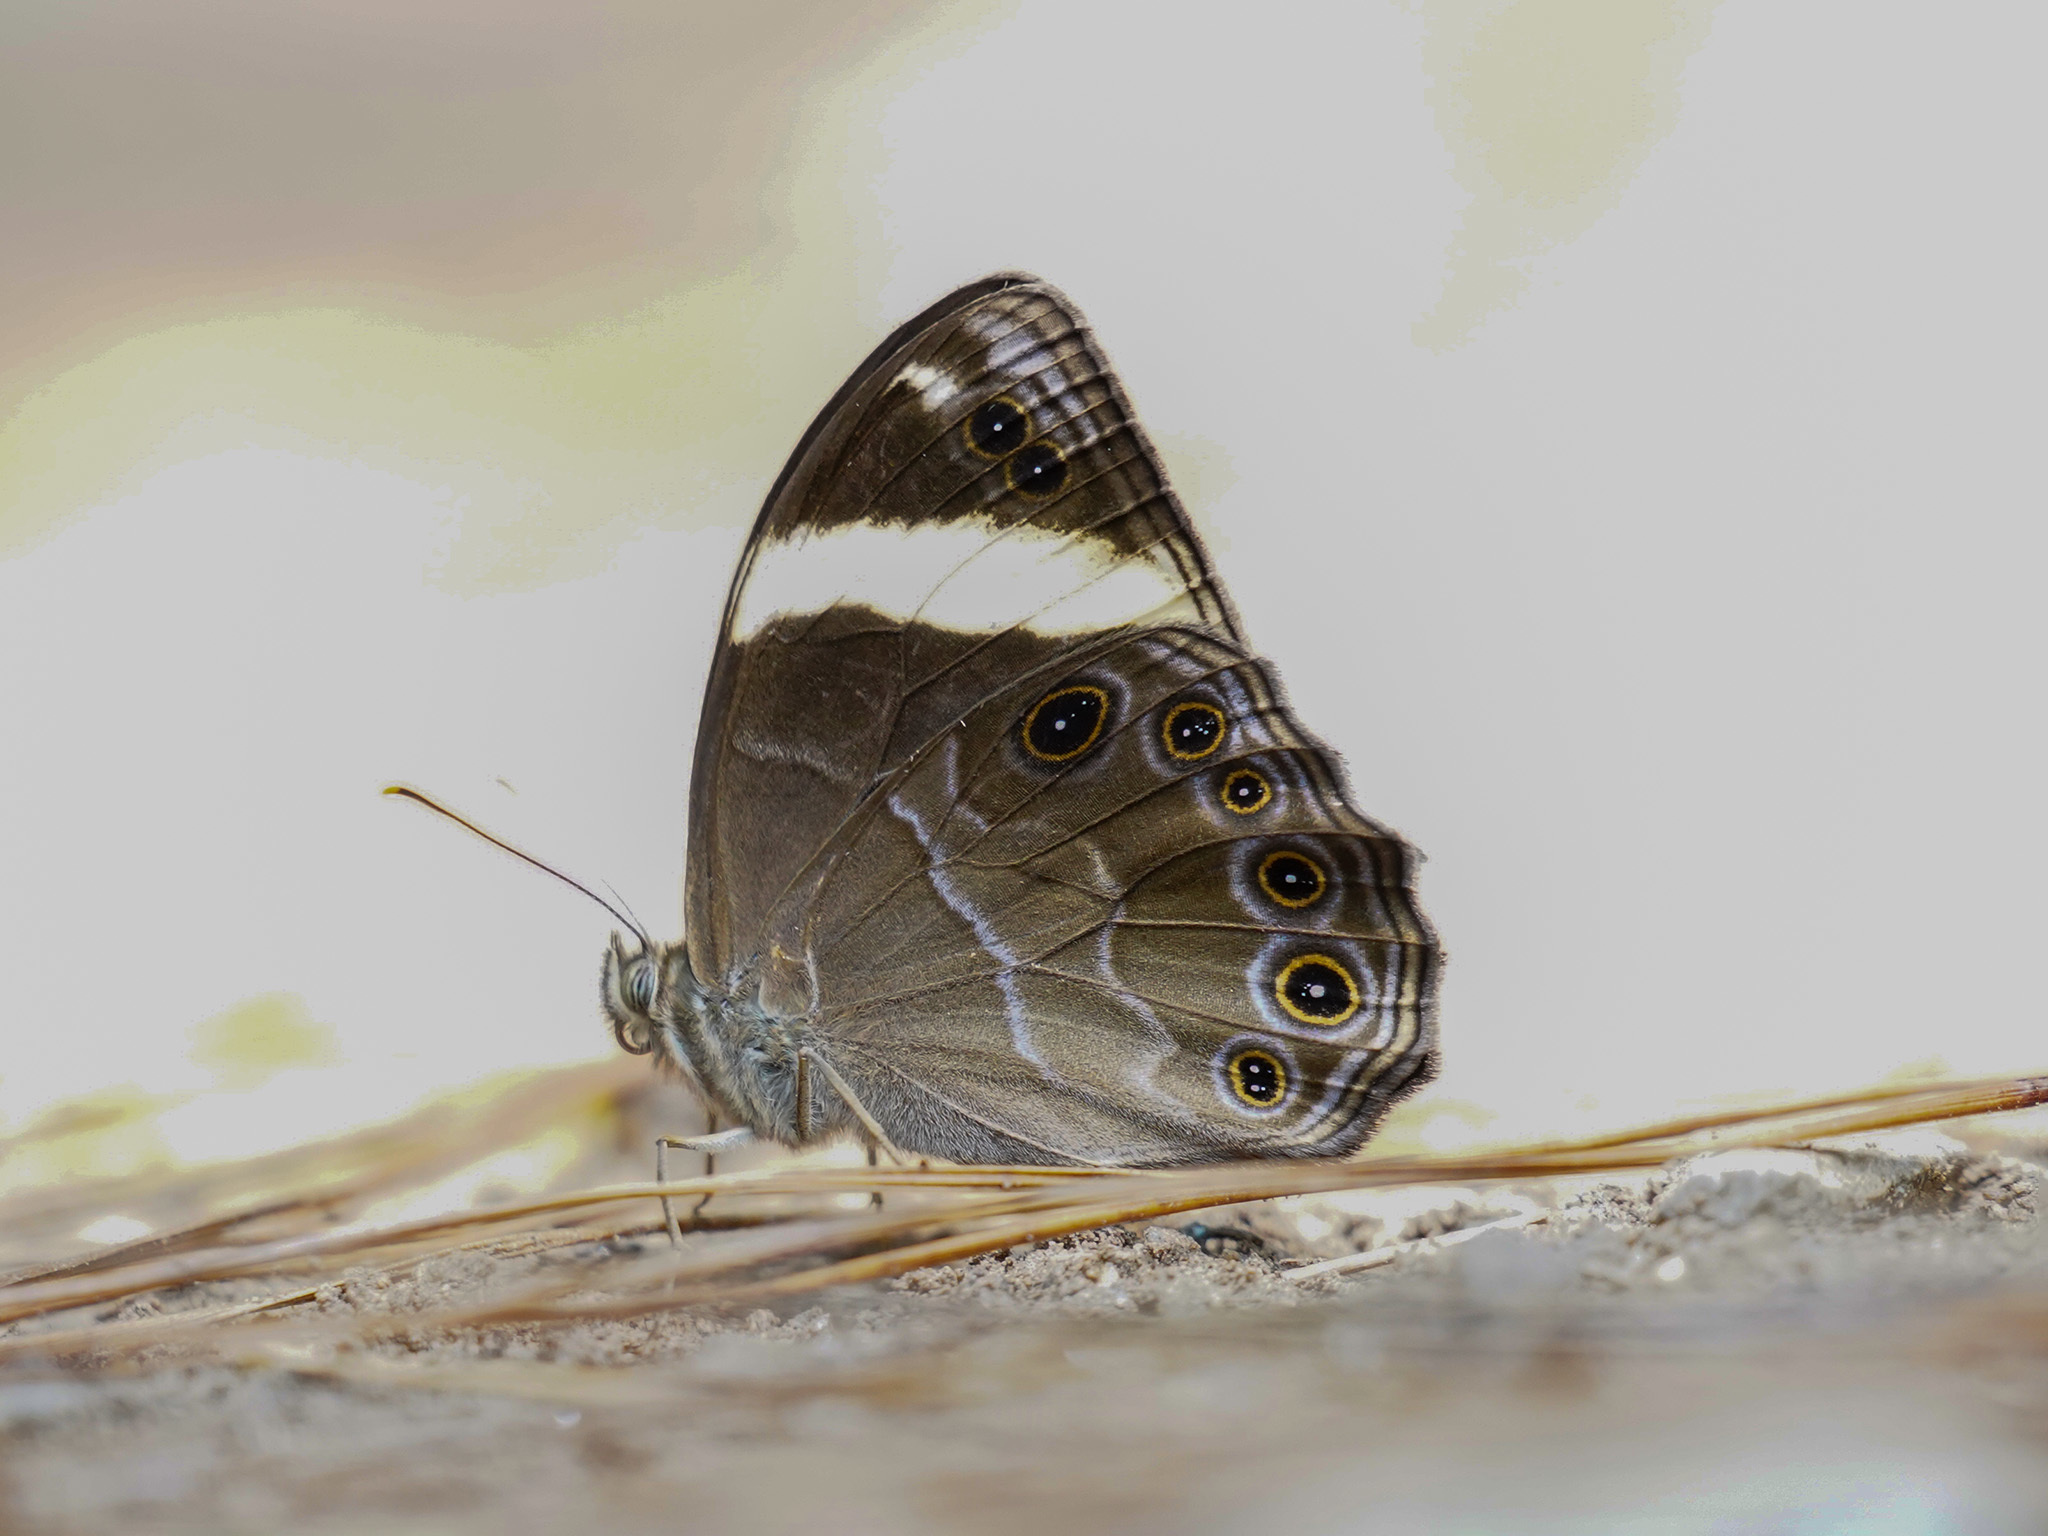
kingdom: Animalia
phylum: Arthropoda
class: Insecta
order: Lepidoptera
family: Nymphalidae
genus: Lethe
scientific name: Lethe verma
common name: Straight-banded treebrown
